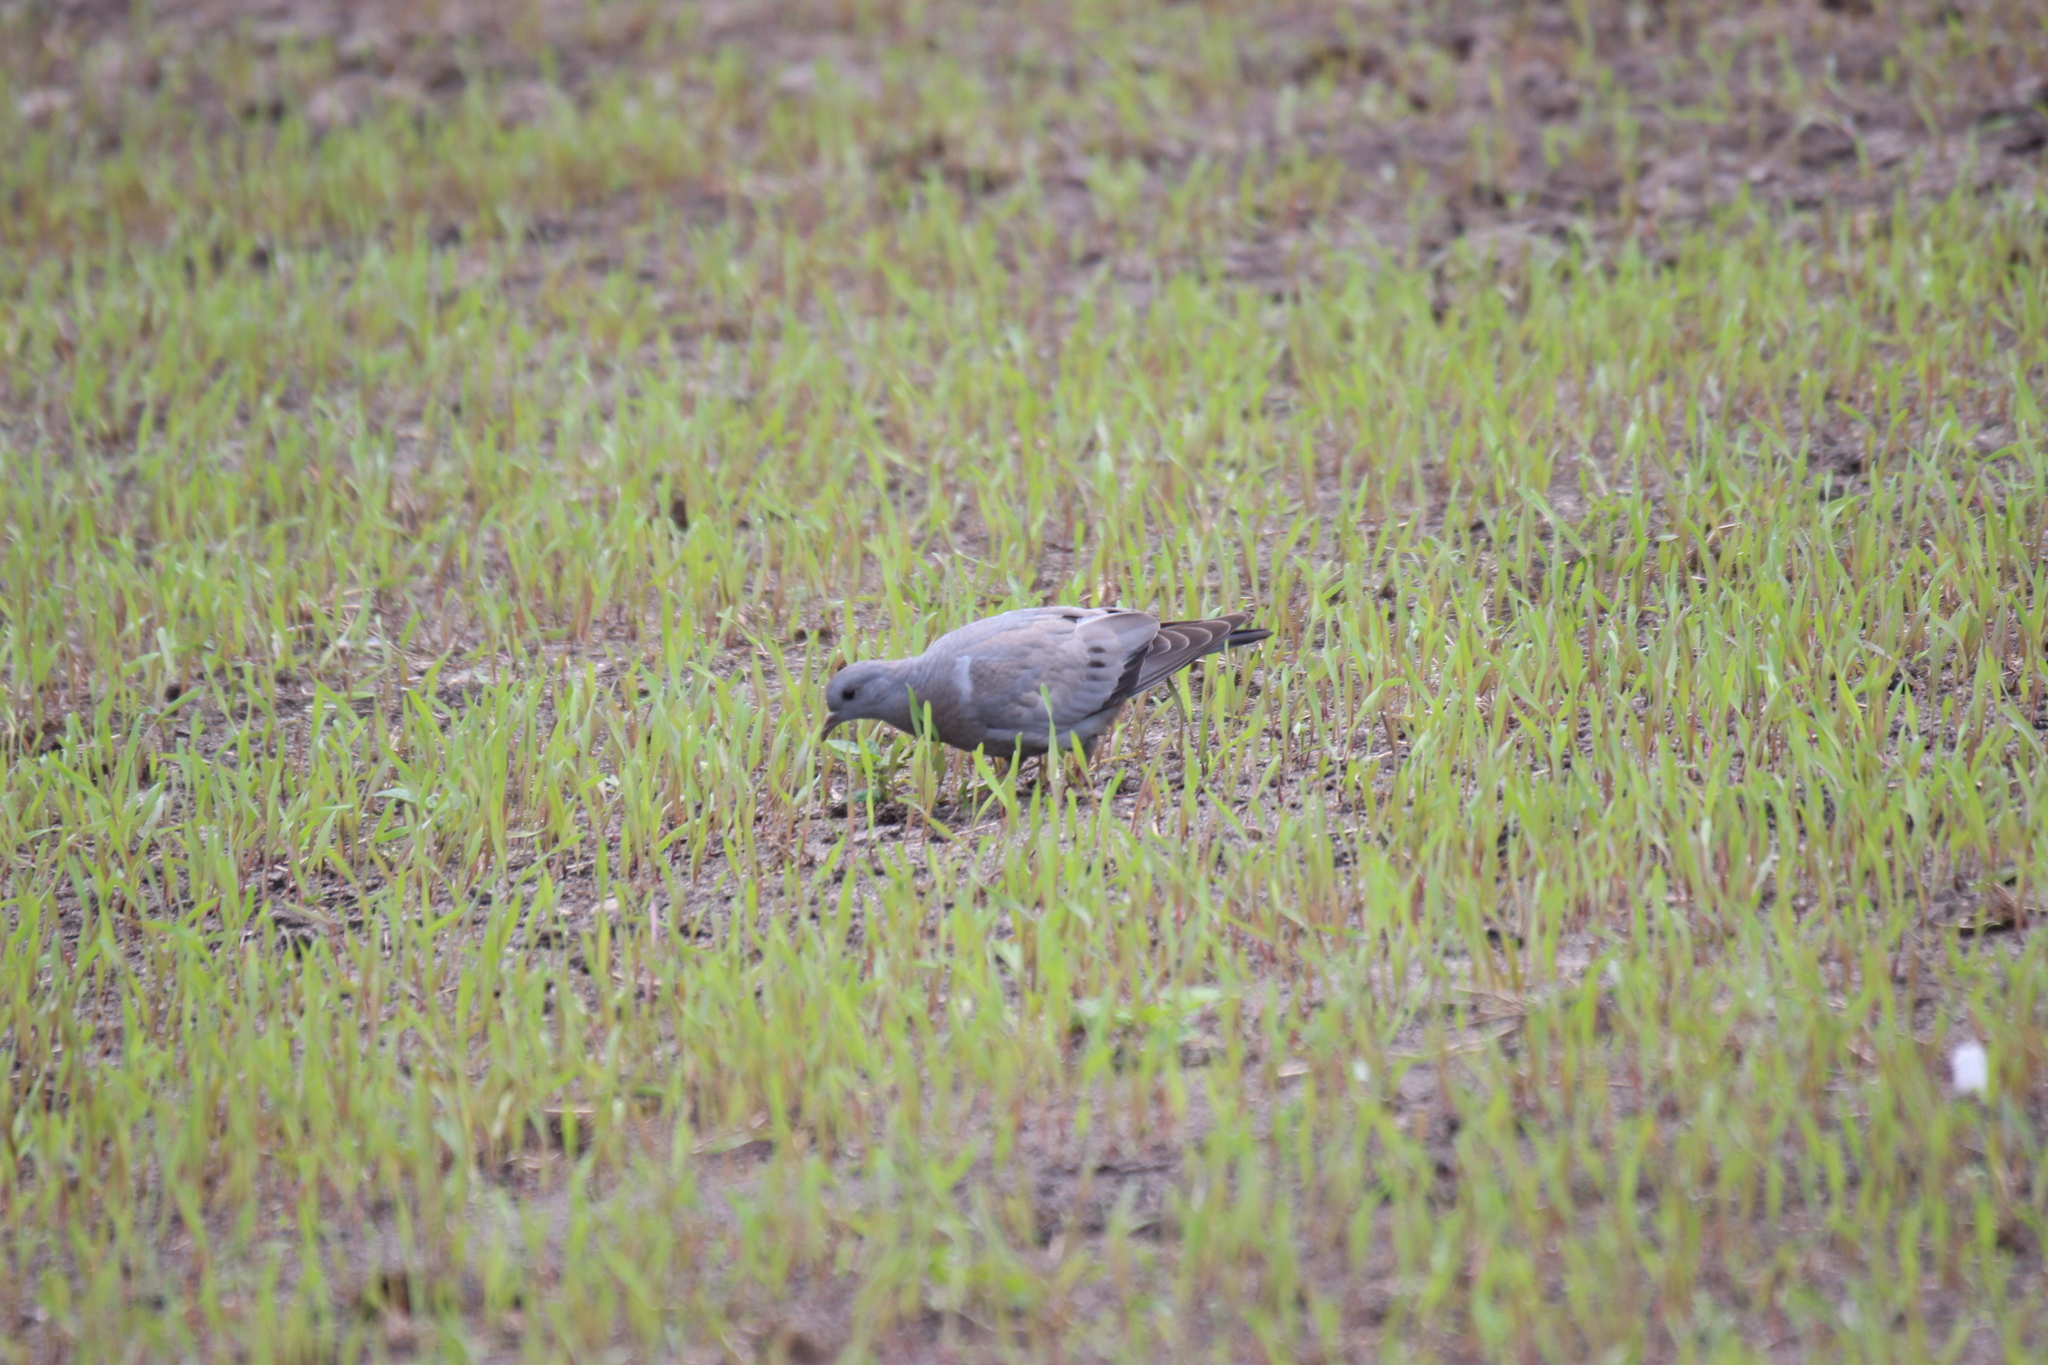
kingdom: Animalia
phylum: Chordata
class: Aves
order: Columbiformes
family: Columbidae
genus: Columba
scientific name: Columba oenas
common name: Stock dove
